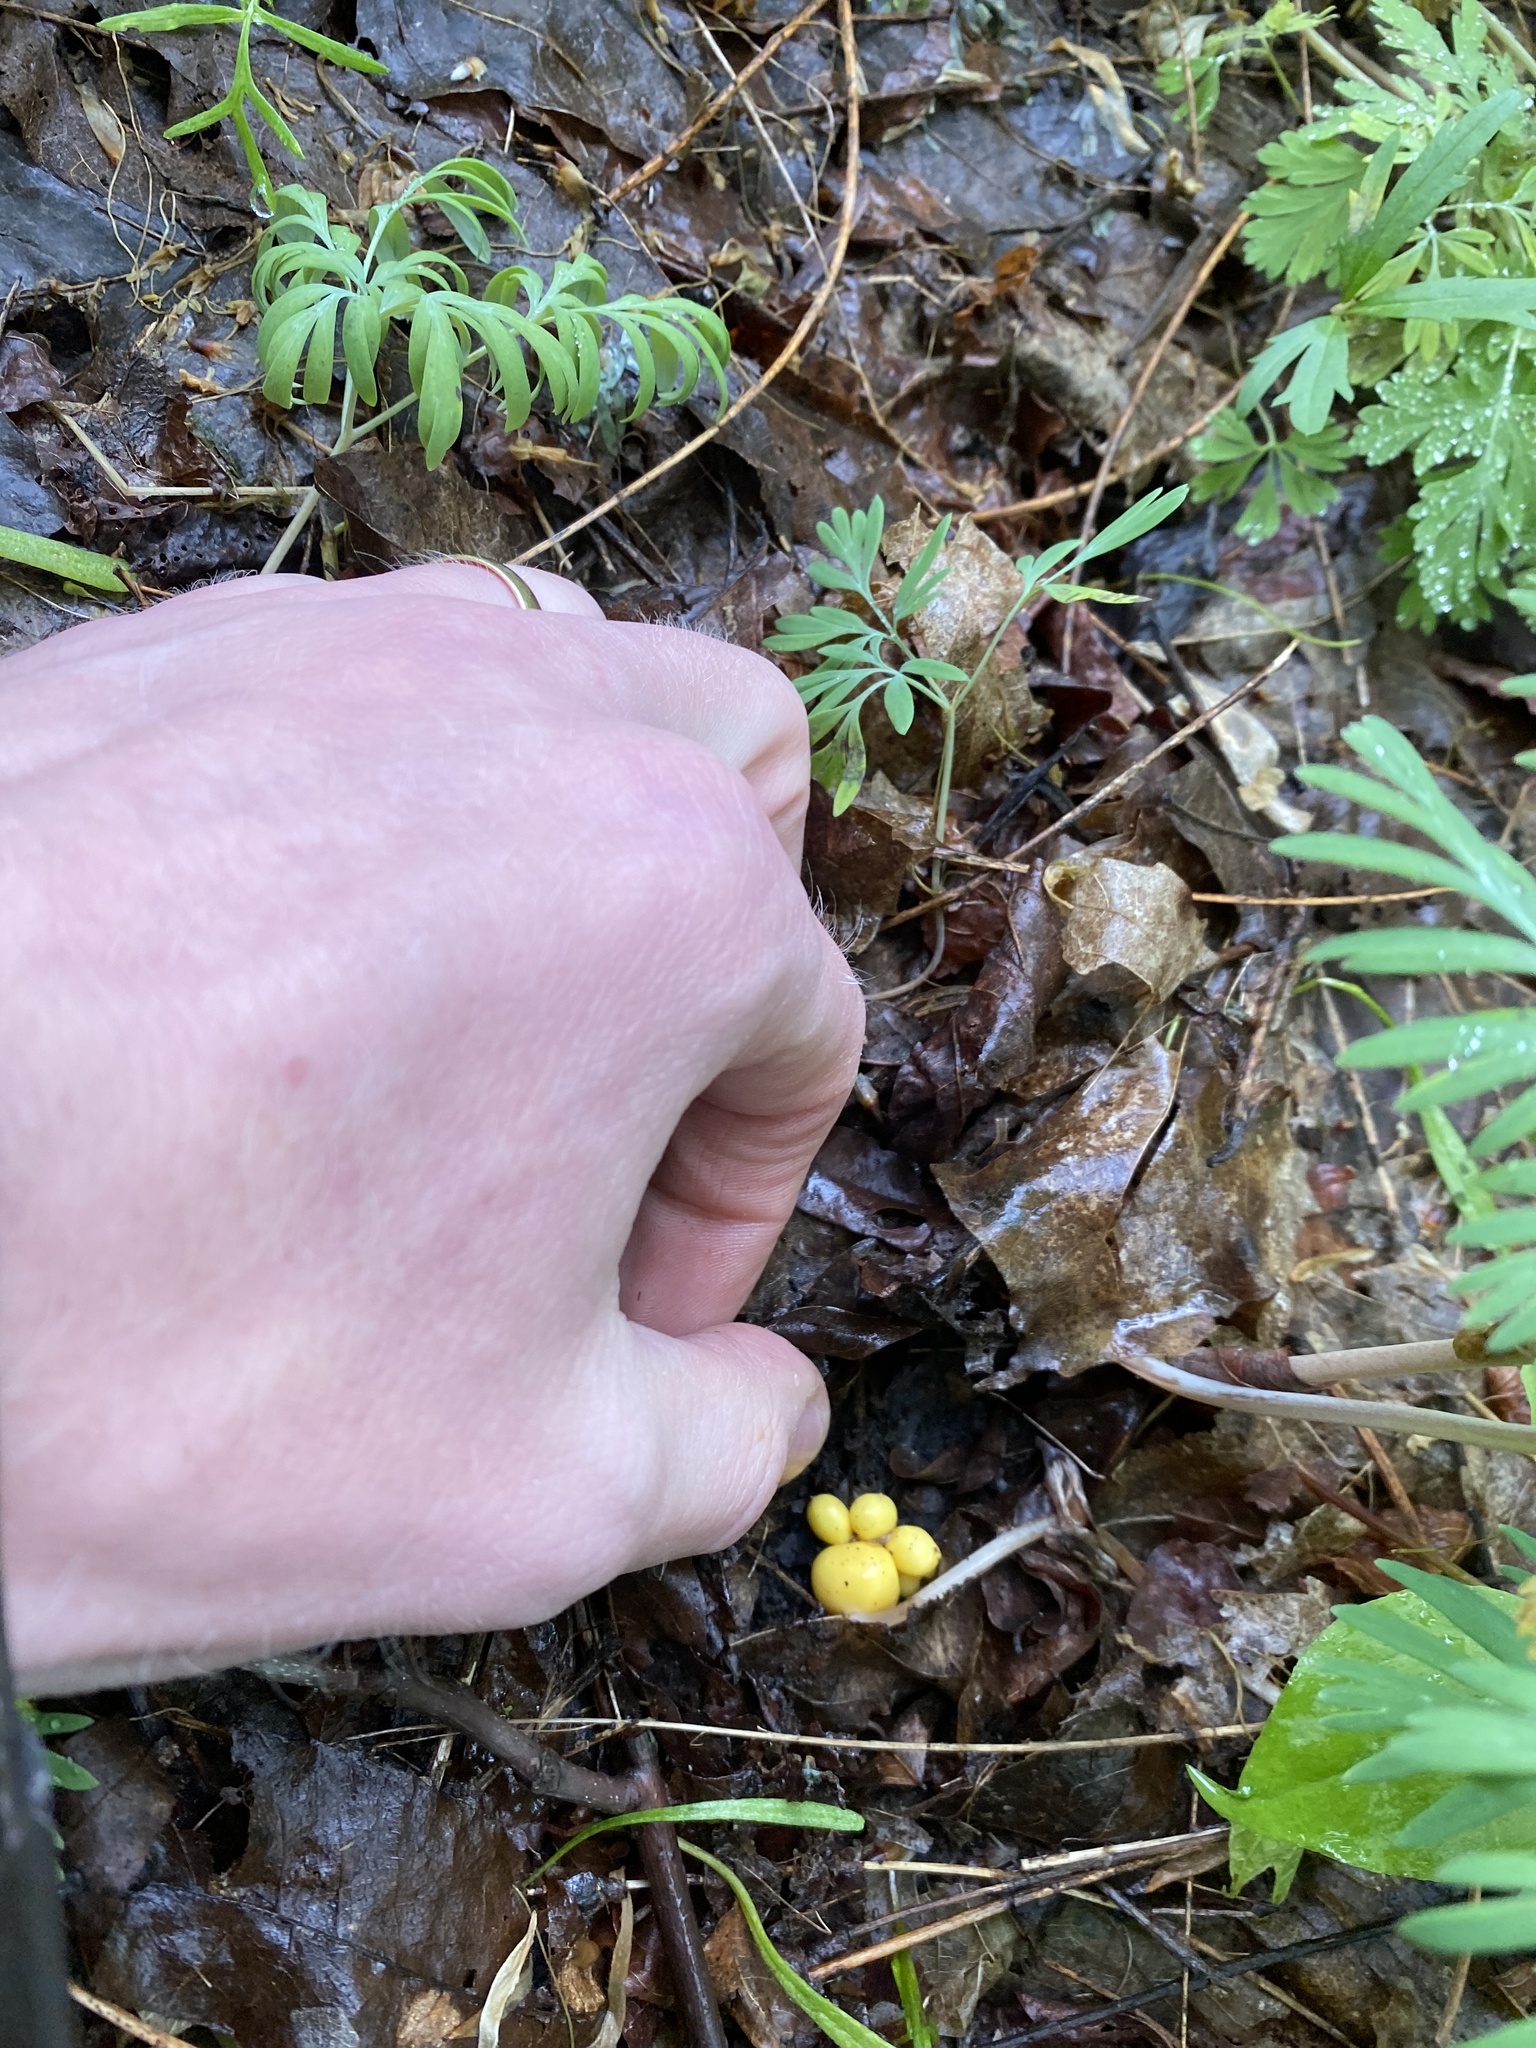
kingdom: Plantae
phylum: Tracheophyta
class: Magnoliopsida
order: Ranunculales
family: Papaveraceae
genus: Dicentra
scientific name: Dicentra canadensis
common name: Squirrel-corn
